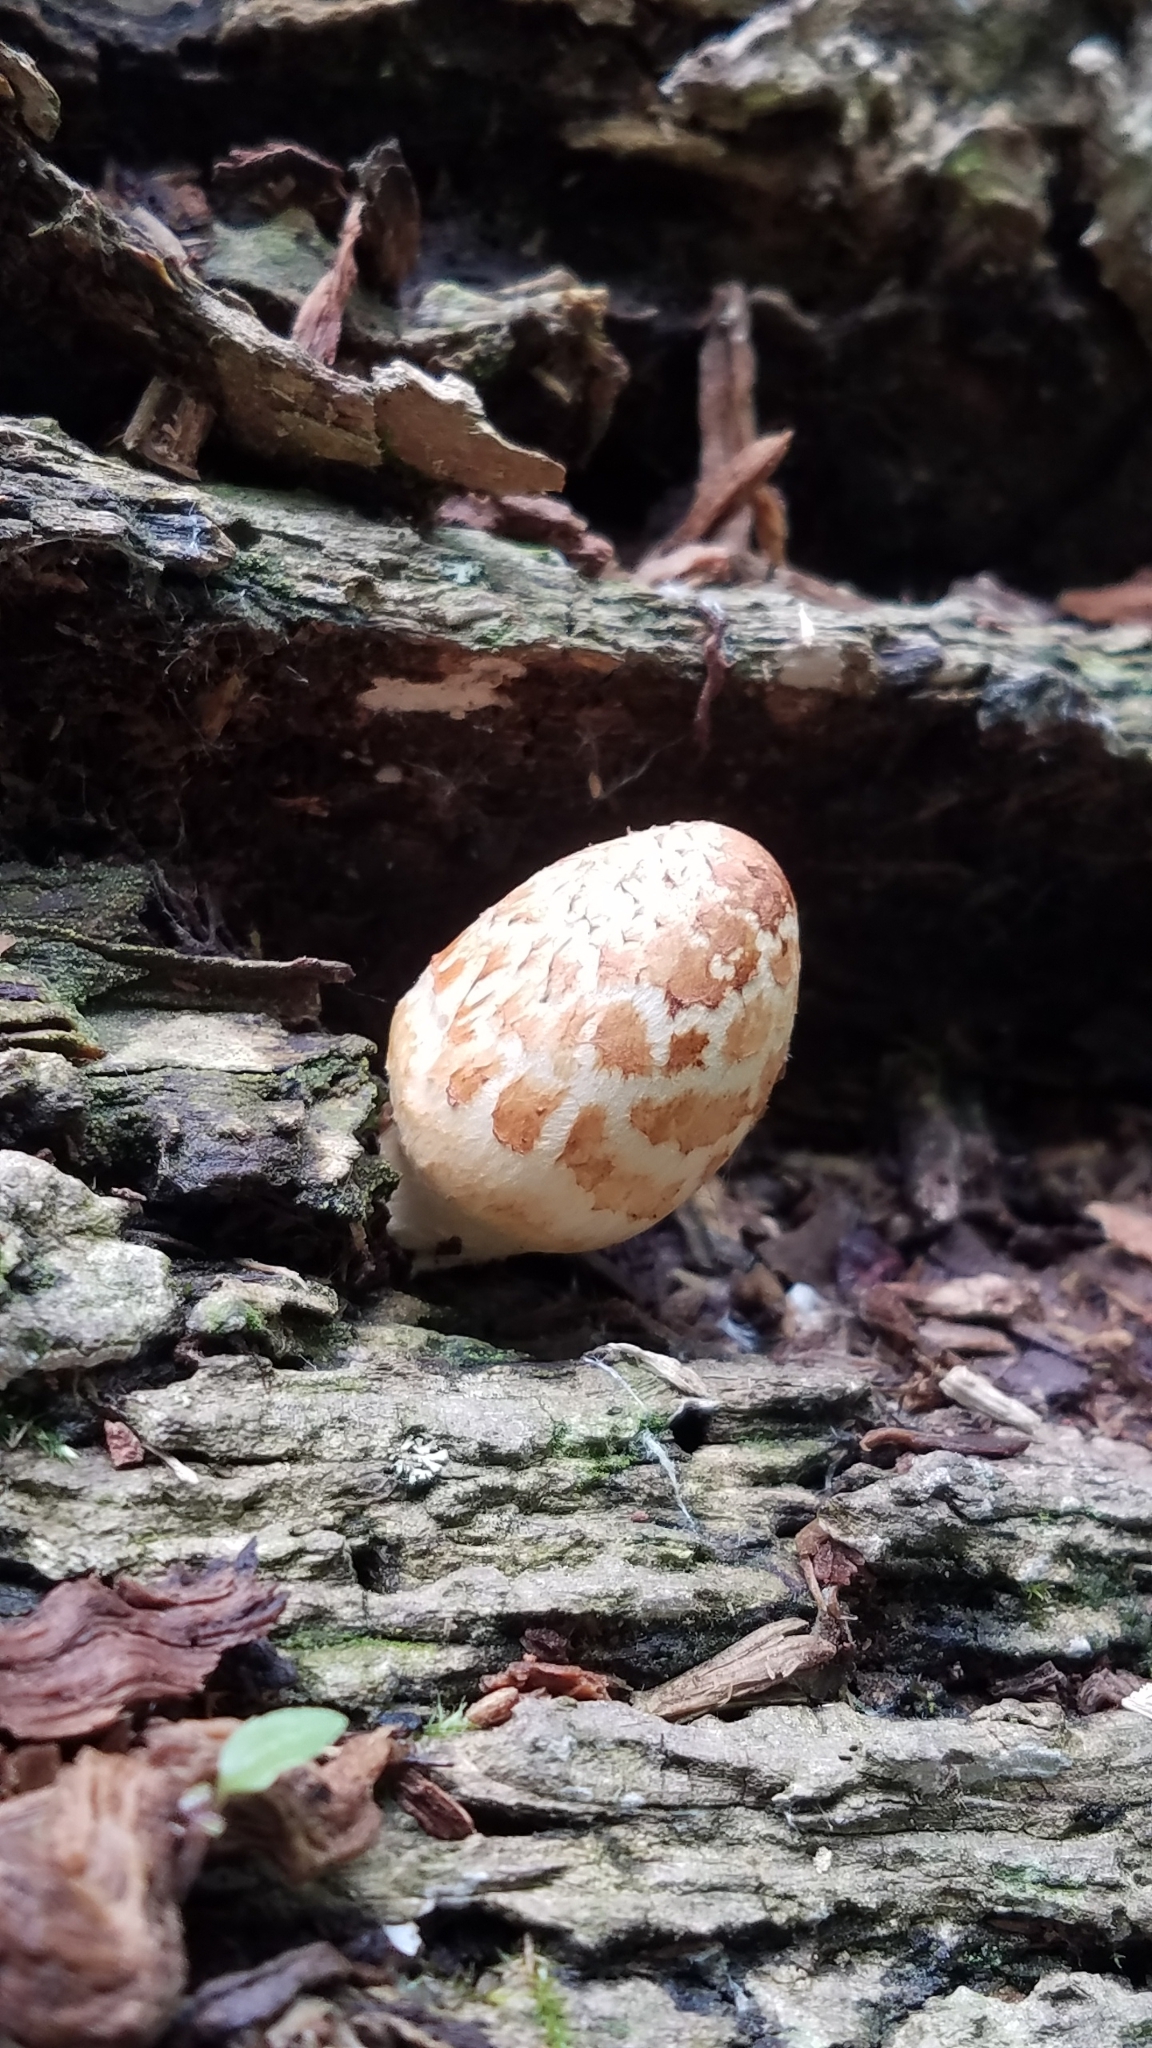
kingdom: Fungi
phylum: Basidiomycota
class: Agaricomycetes
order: Agaricales
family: Psathyrellaceae
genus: Coprinopsis
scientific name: Coprinopsis variegata
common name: Scaly ink cap
